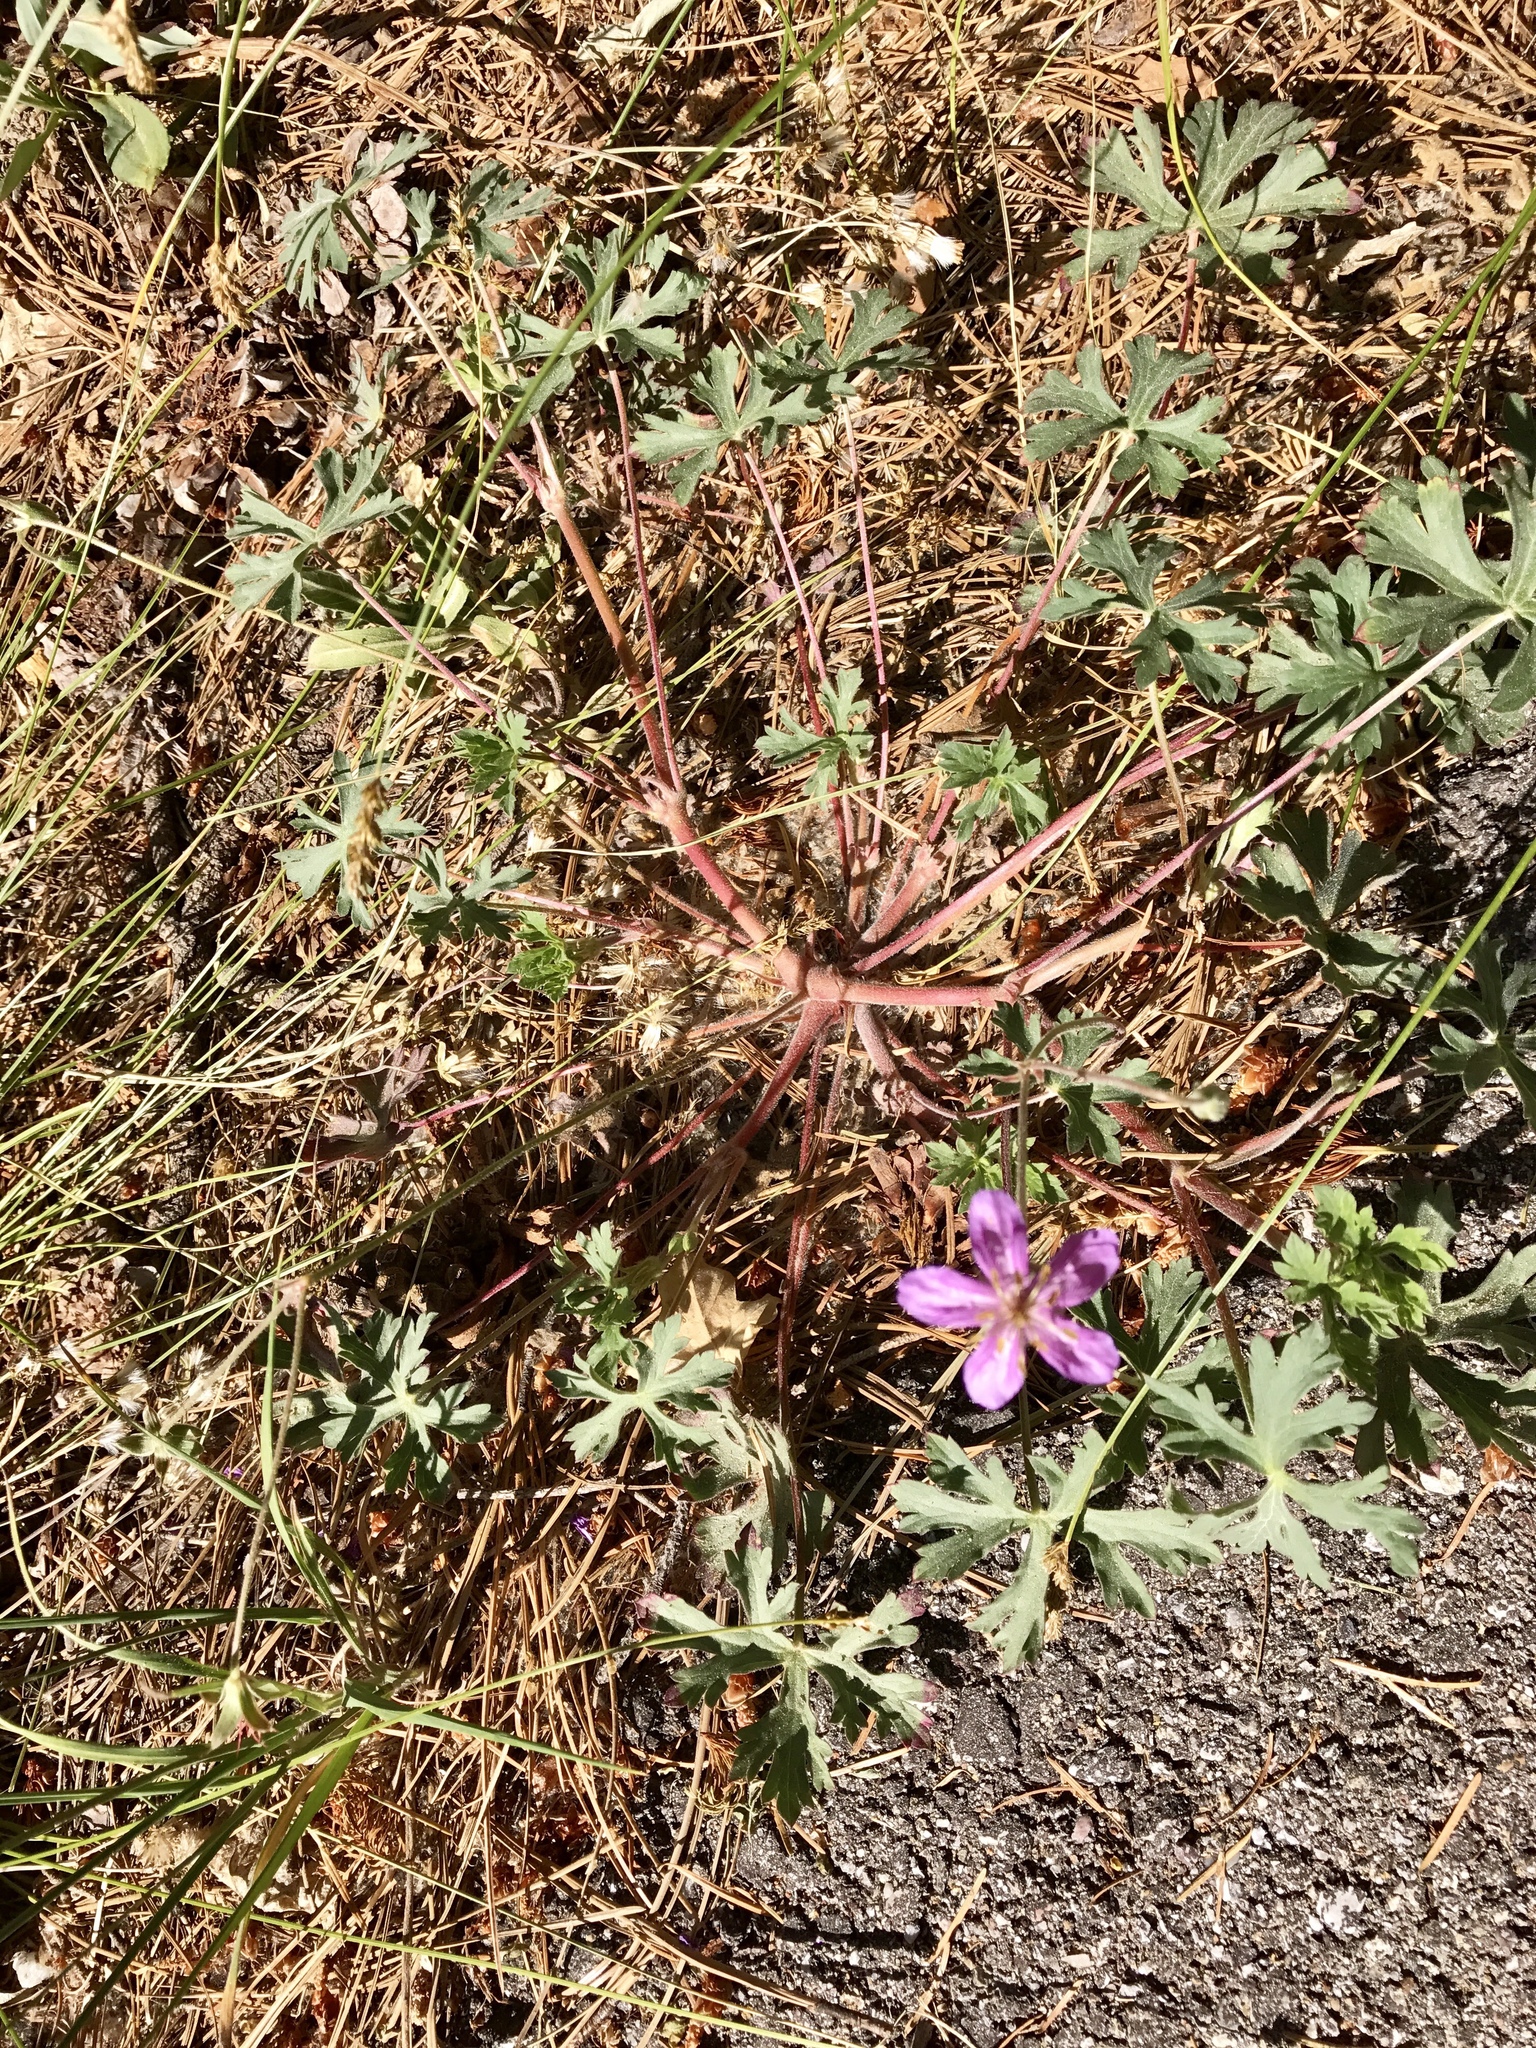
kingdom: Plantae
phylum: Tracheophyta
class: Magnoliopsida
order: Geraniales
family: Geraniaceae
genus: Geranium
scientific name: Geranium caespitosum
